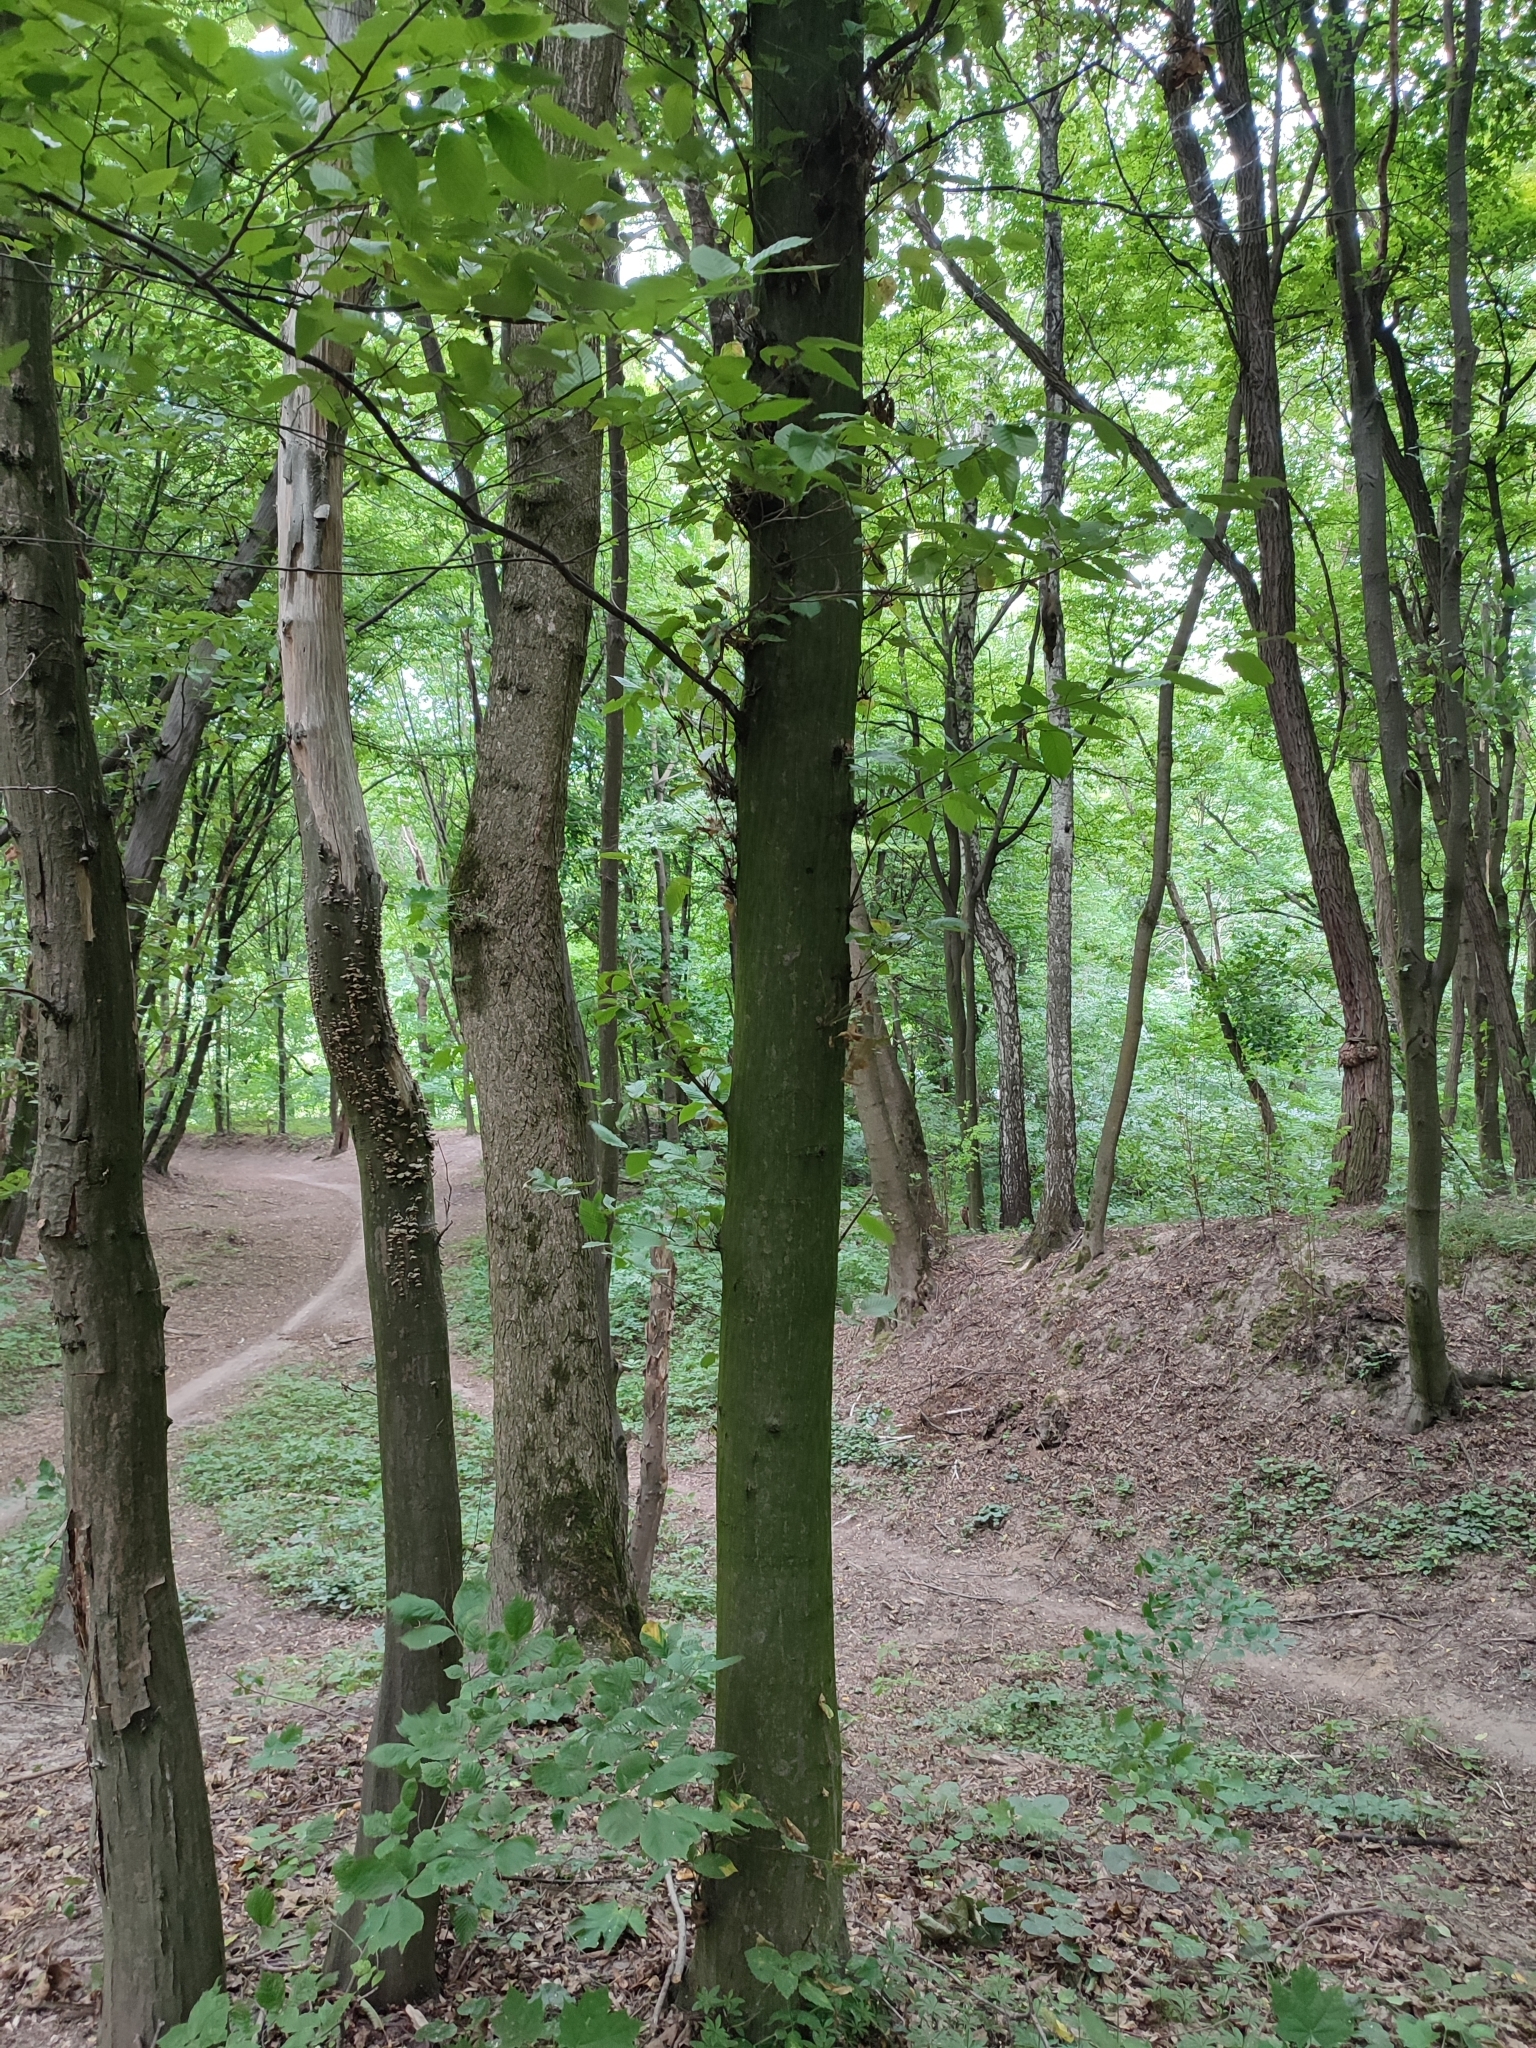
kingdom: Plantae
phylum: Tracheophyta
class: Magnoliopsida
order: Fagales
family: Betulaceae
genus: Carpinus
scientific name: Carpinus betulus
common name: Hornbeam
